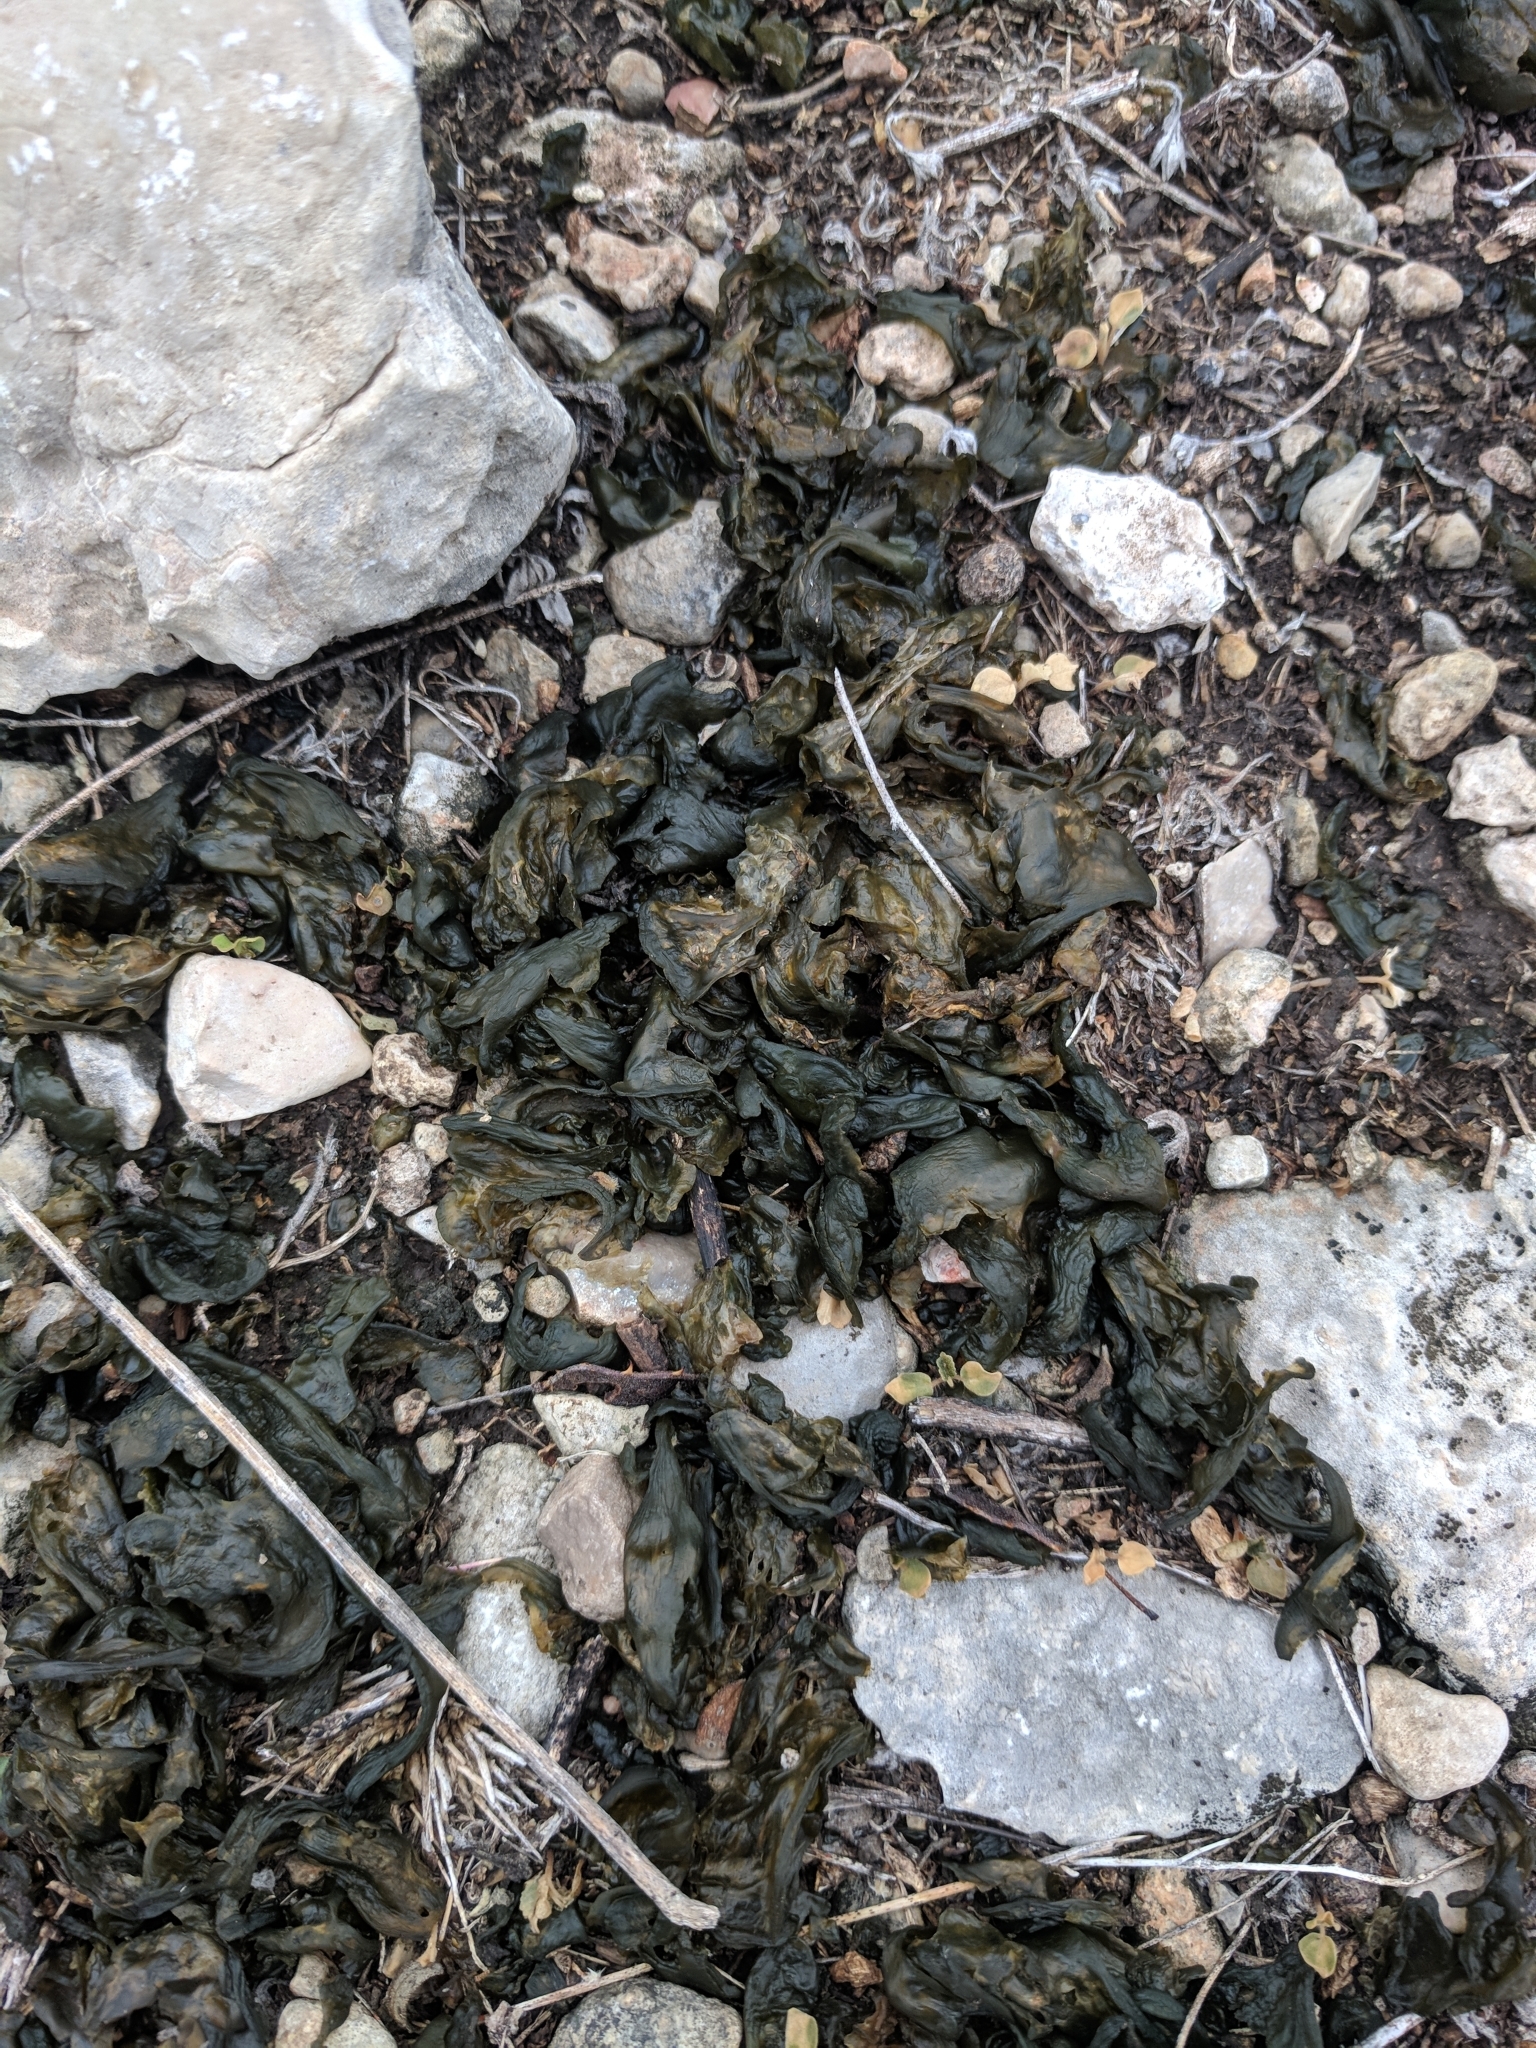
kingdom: Bacteria
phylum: Cyanobacteria
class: Cyanobacteriia
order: Cyanobacteriales
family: Nostocaceae
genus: Nostoc
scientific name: Nostoc commune
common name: Star jelly
